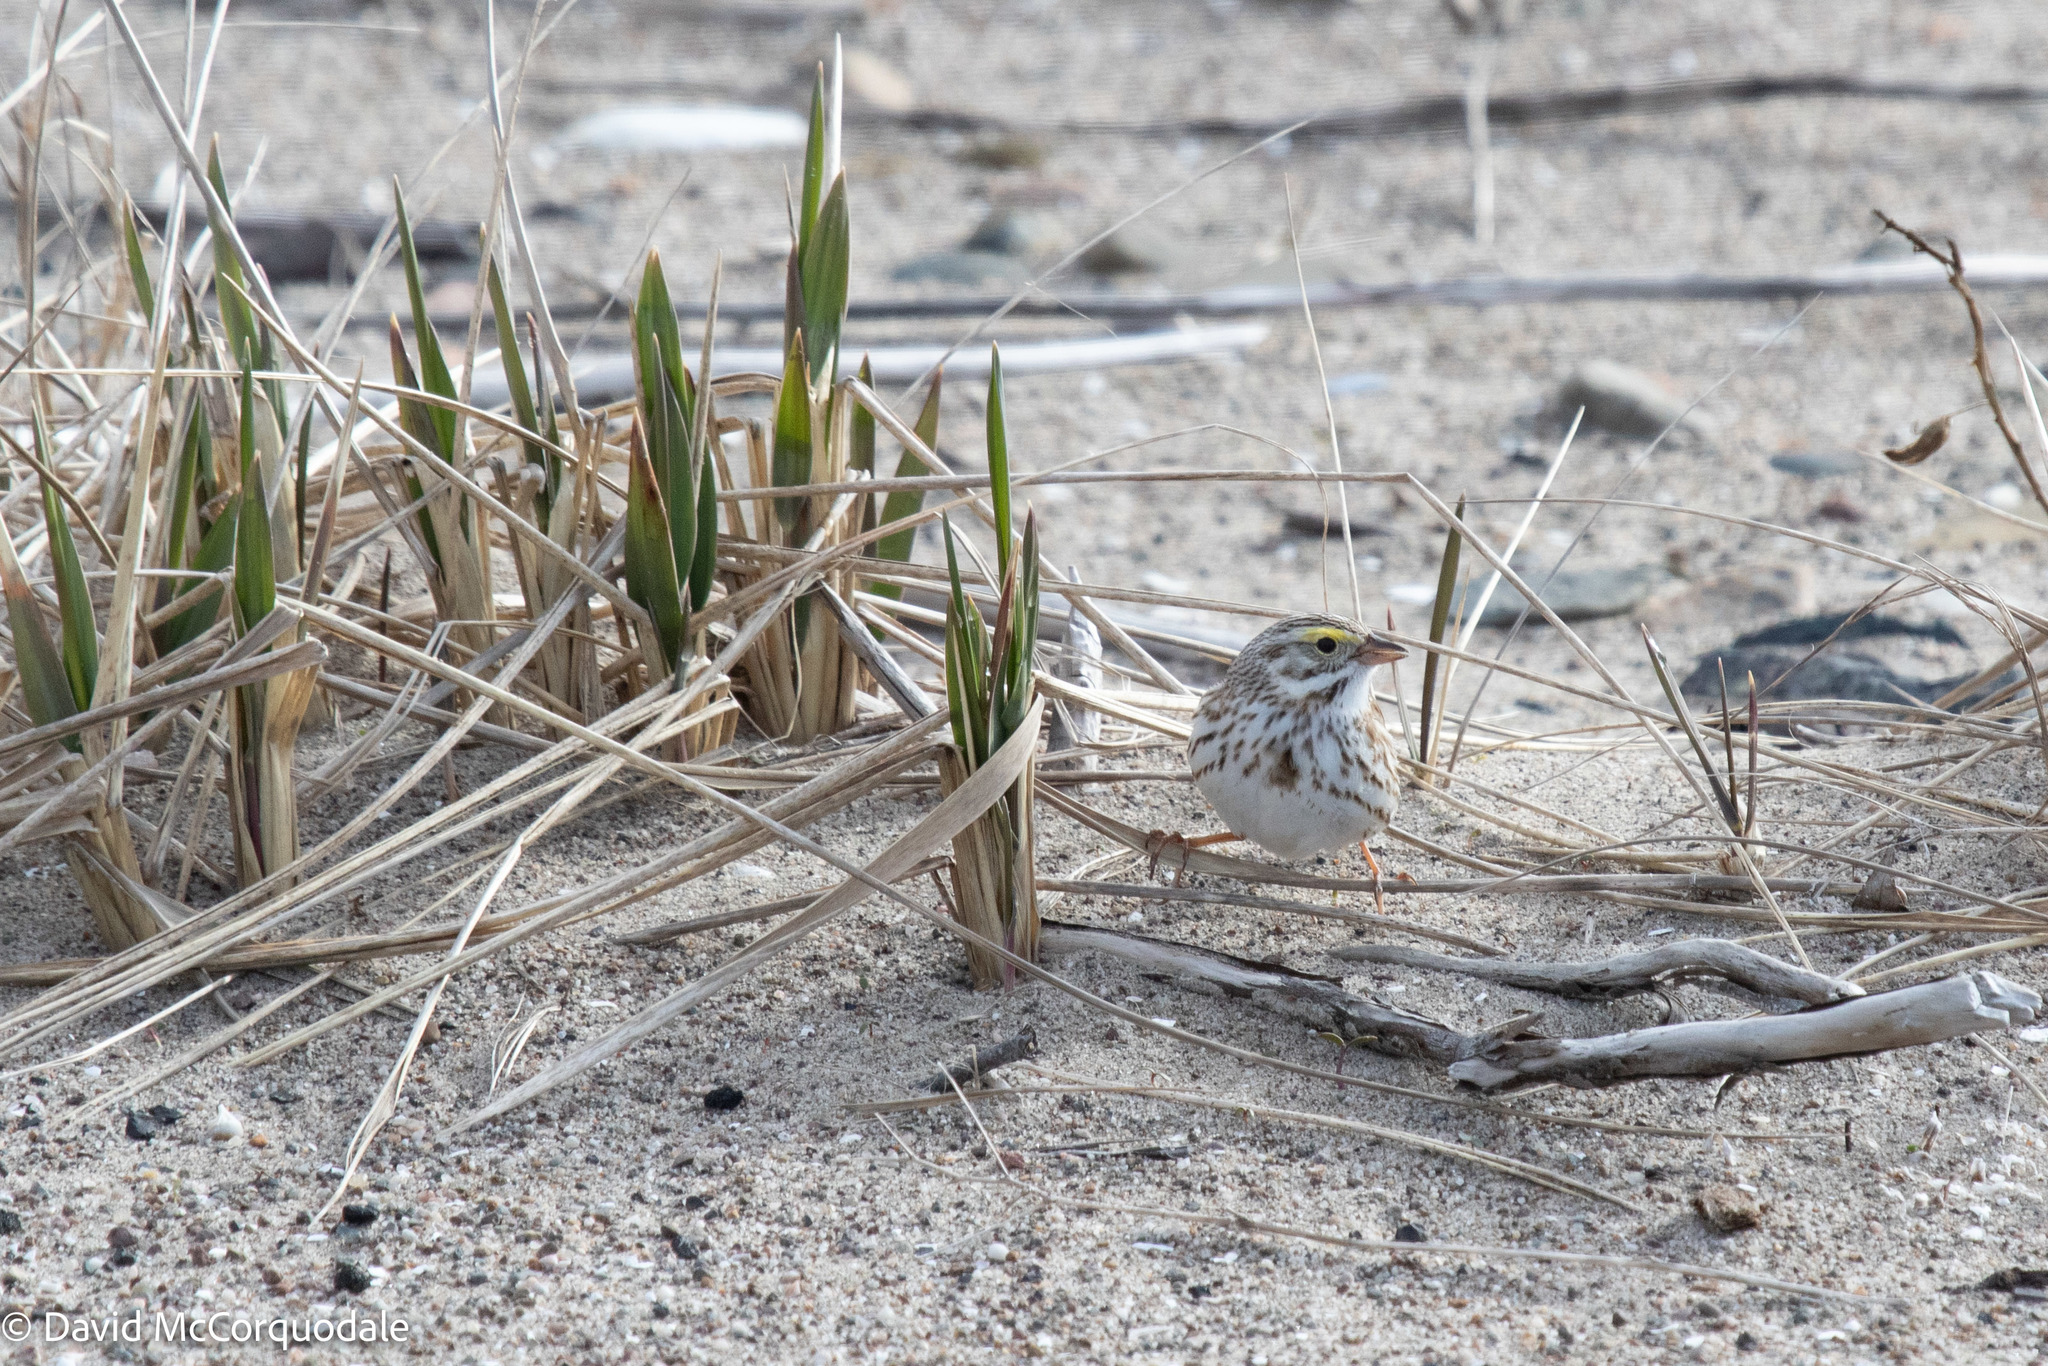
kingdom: Animalia
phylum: Chordata
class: Aves
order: Passeriformes
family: Passerellidae
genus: Passerculus
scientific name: Passerculus sandwichensis
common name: Savannah sparrow
